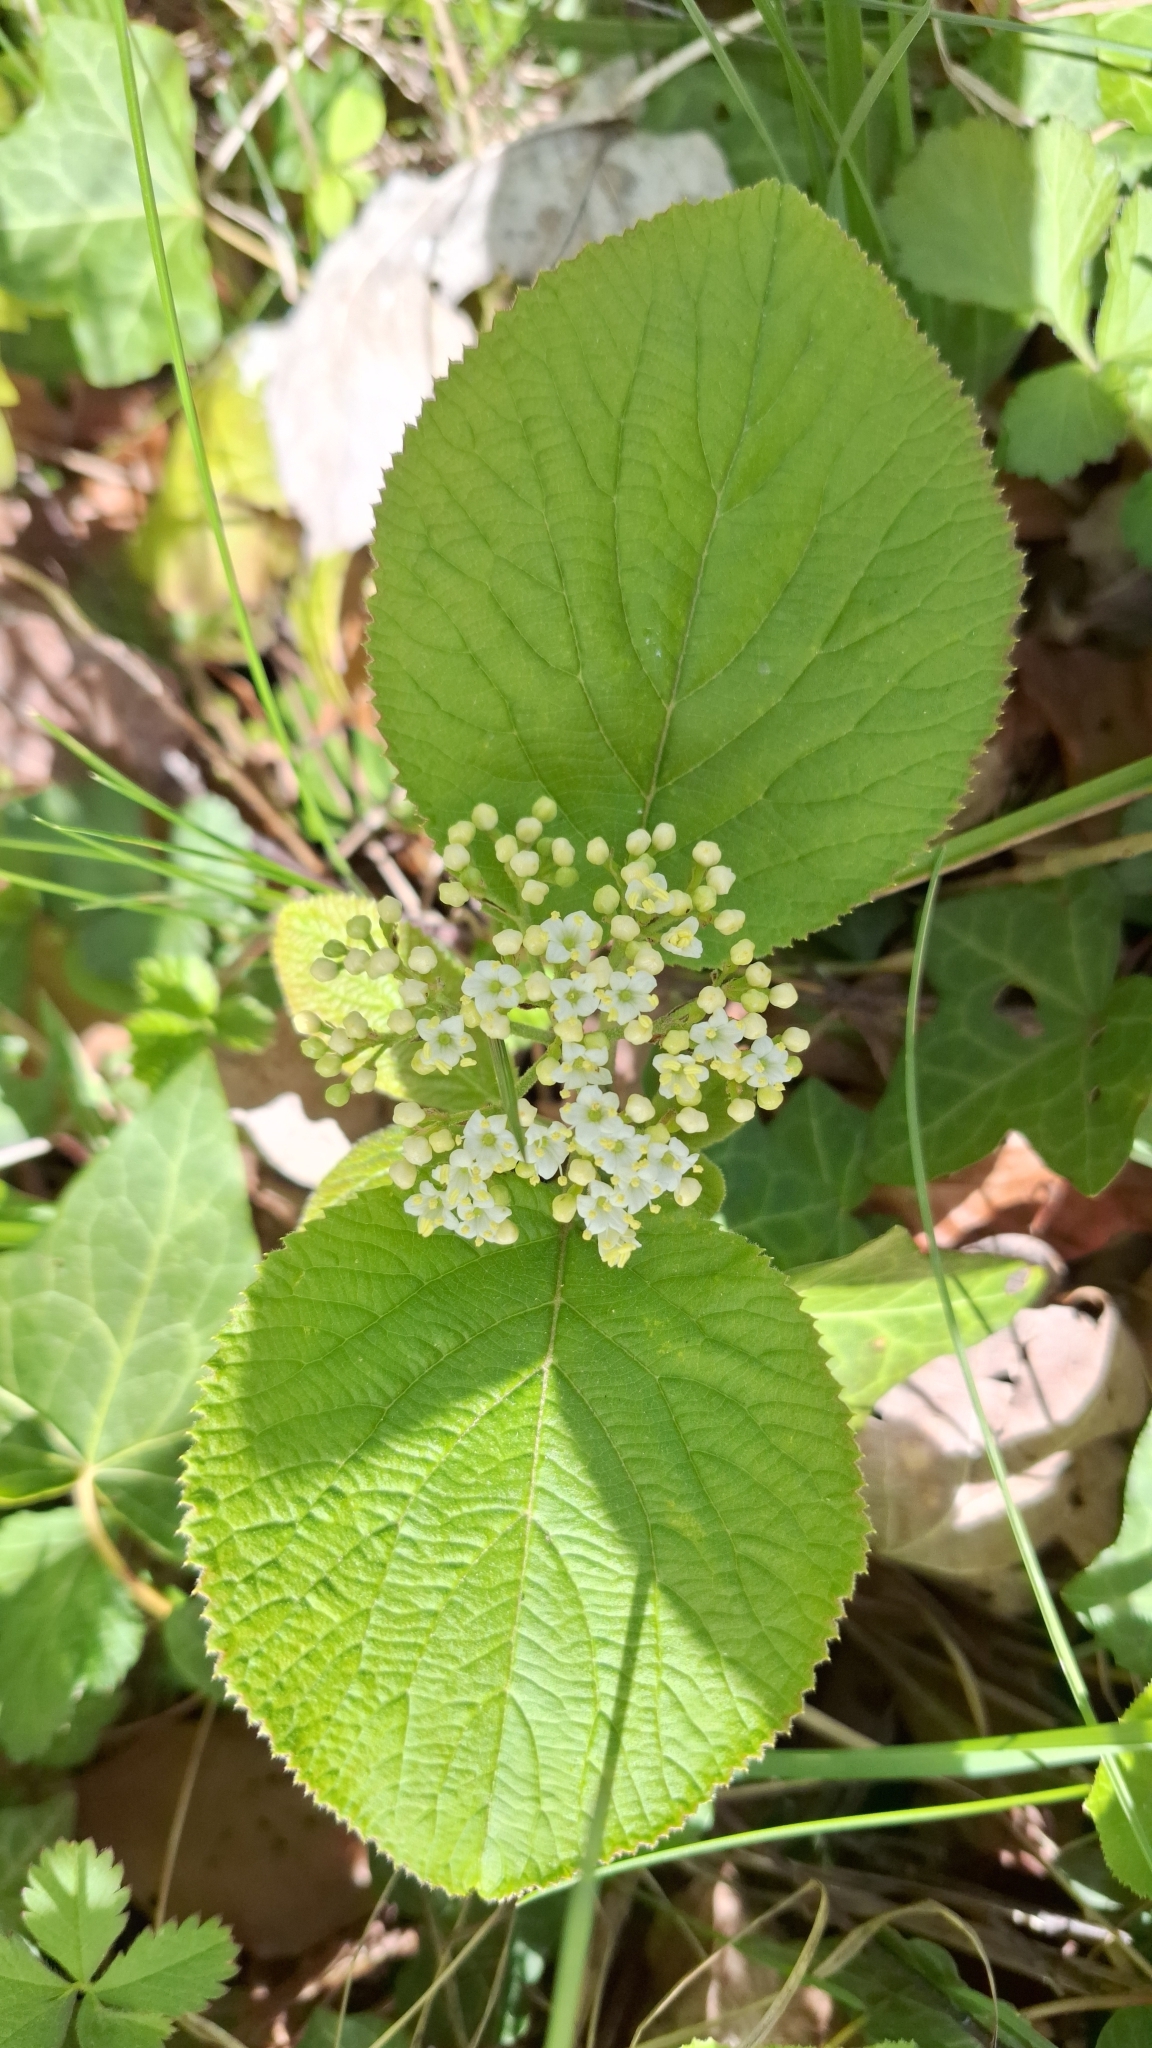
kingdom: Plantae
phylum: Tracheophyta
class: Magnoliopsida
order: Dipsacales
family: Viburnaceae
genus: Viburnum
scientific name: Viburnum lantana
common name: Wayfaring tree
